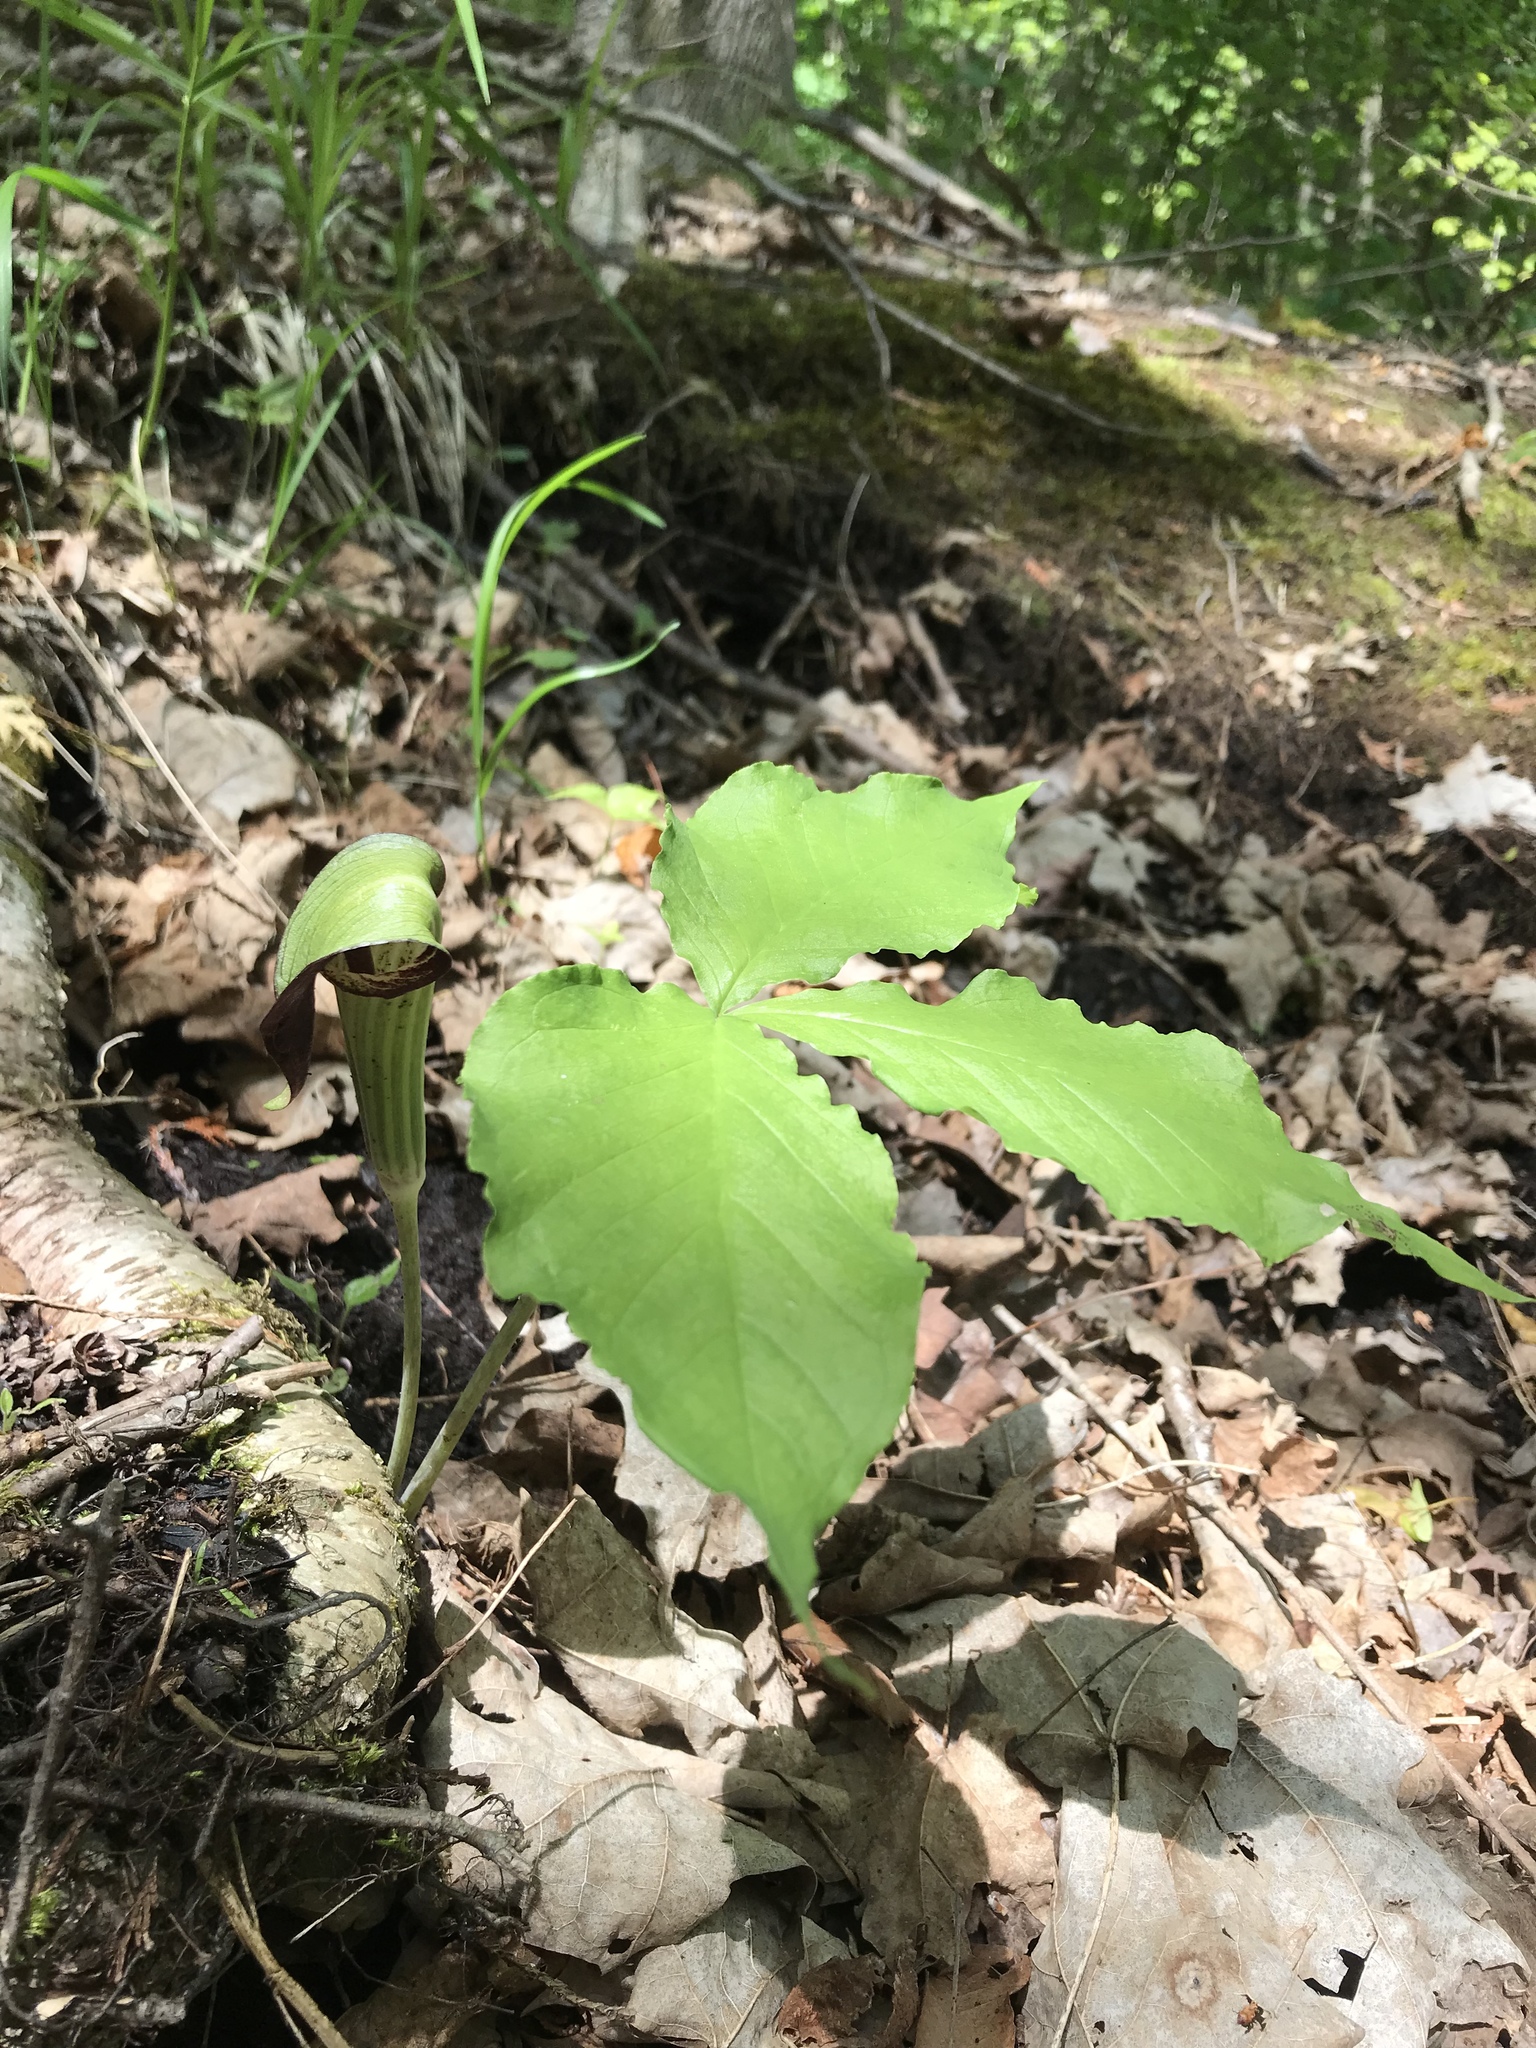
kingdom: Plantae
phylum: Tracheophyta
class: Liliopsida
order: Alismatales
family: Araceae
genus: Arisaema
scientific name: Arisaema triphyllum
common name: Jack-in-the-pulpit
